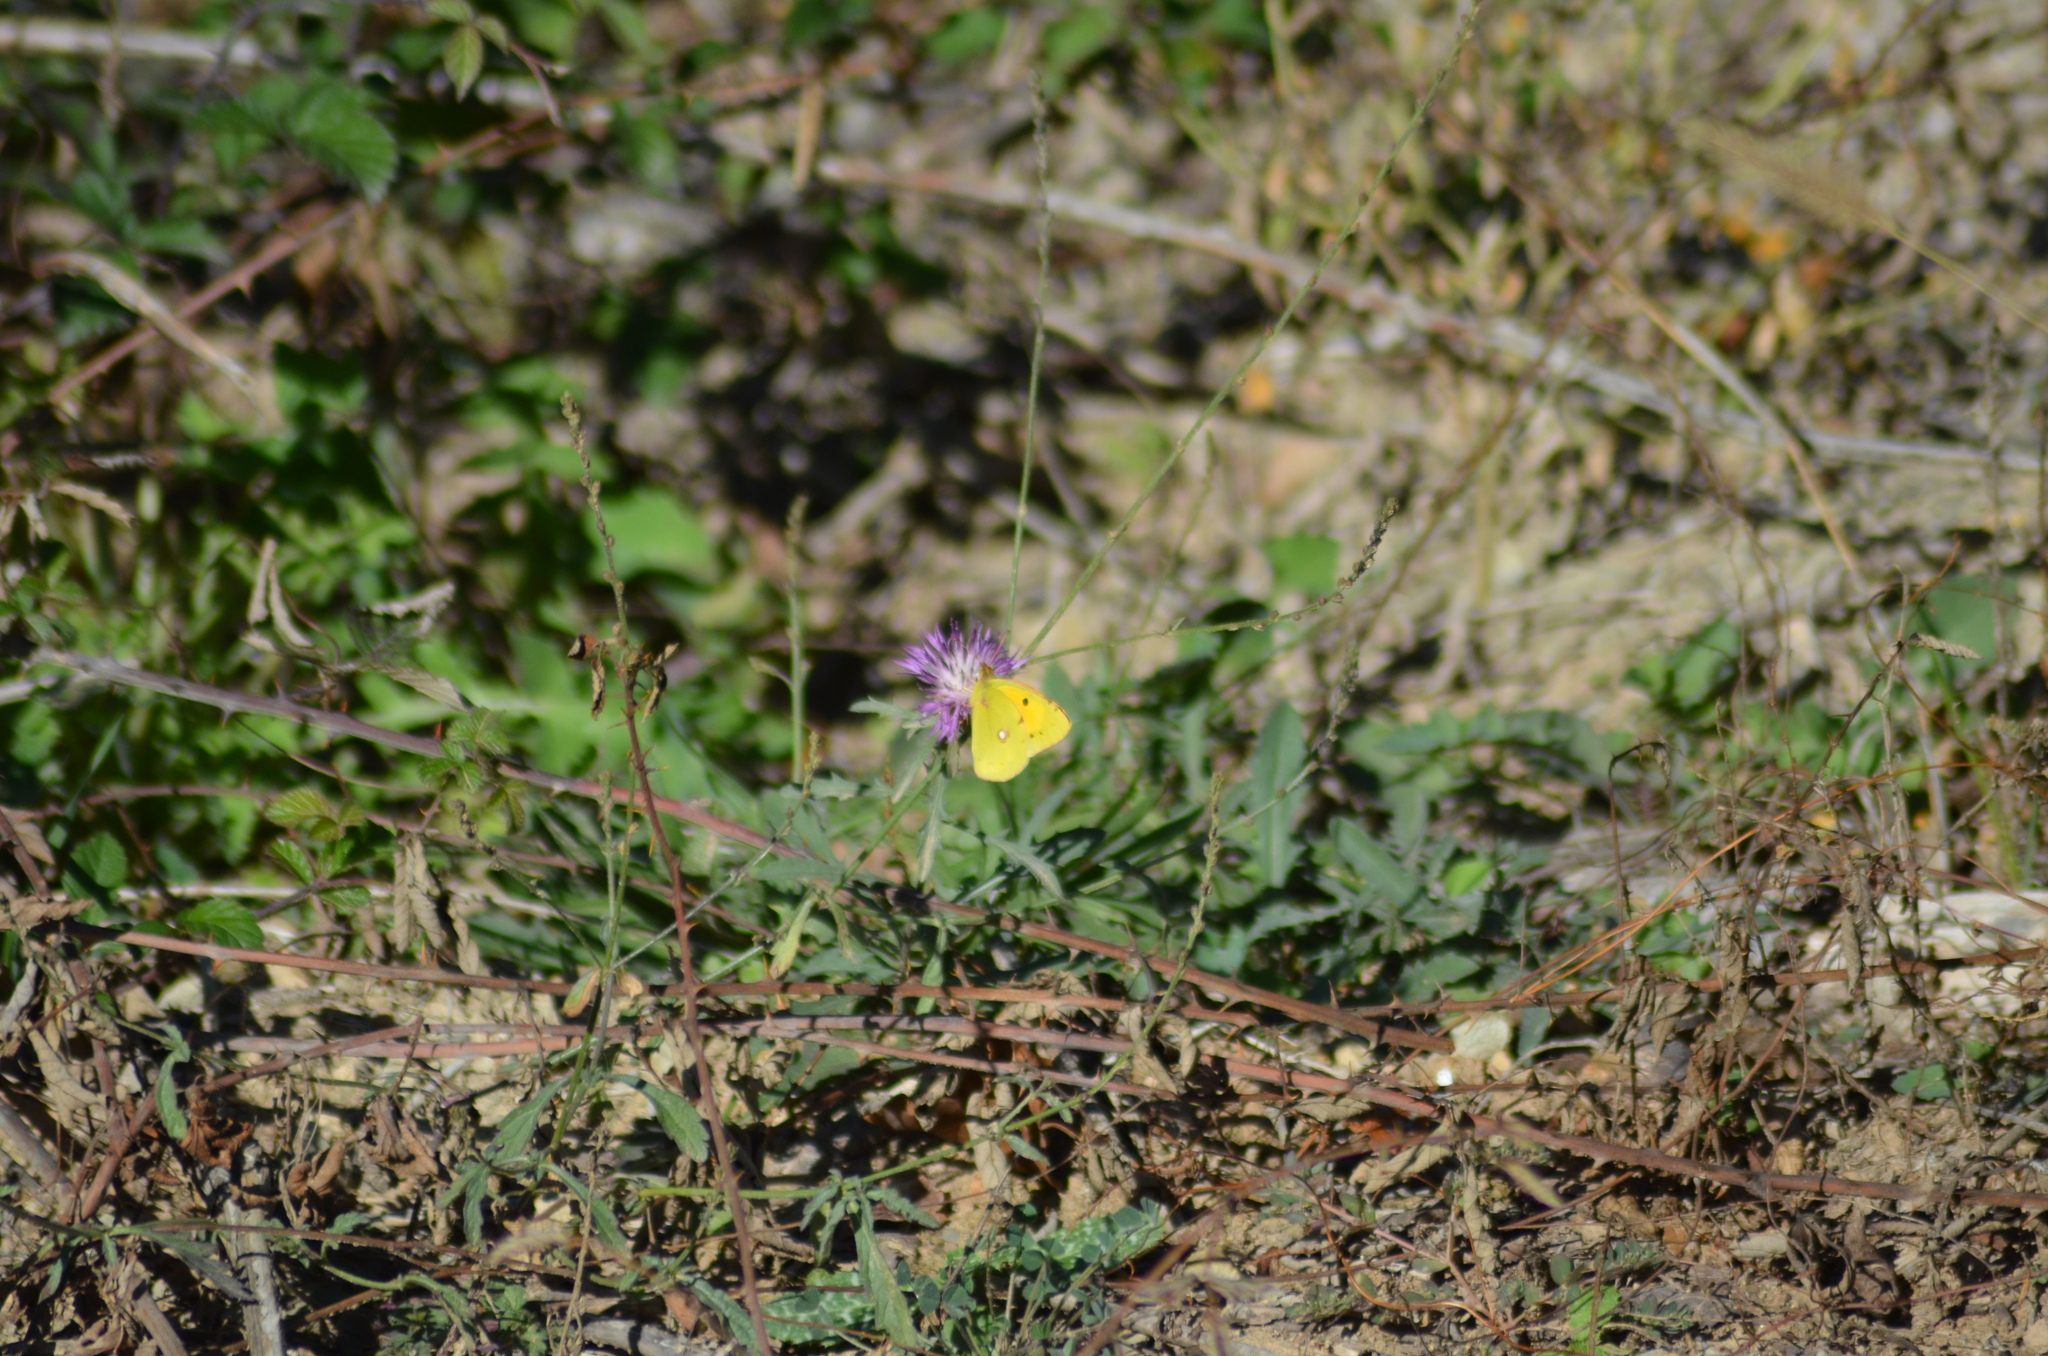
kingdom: Animalia
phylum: Arthropoda
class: Insecta
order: Lepidoptera
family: Pieridae
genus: Colias
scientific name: Colias croceus
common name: Clouded yellow
